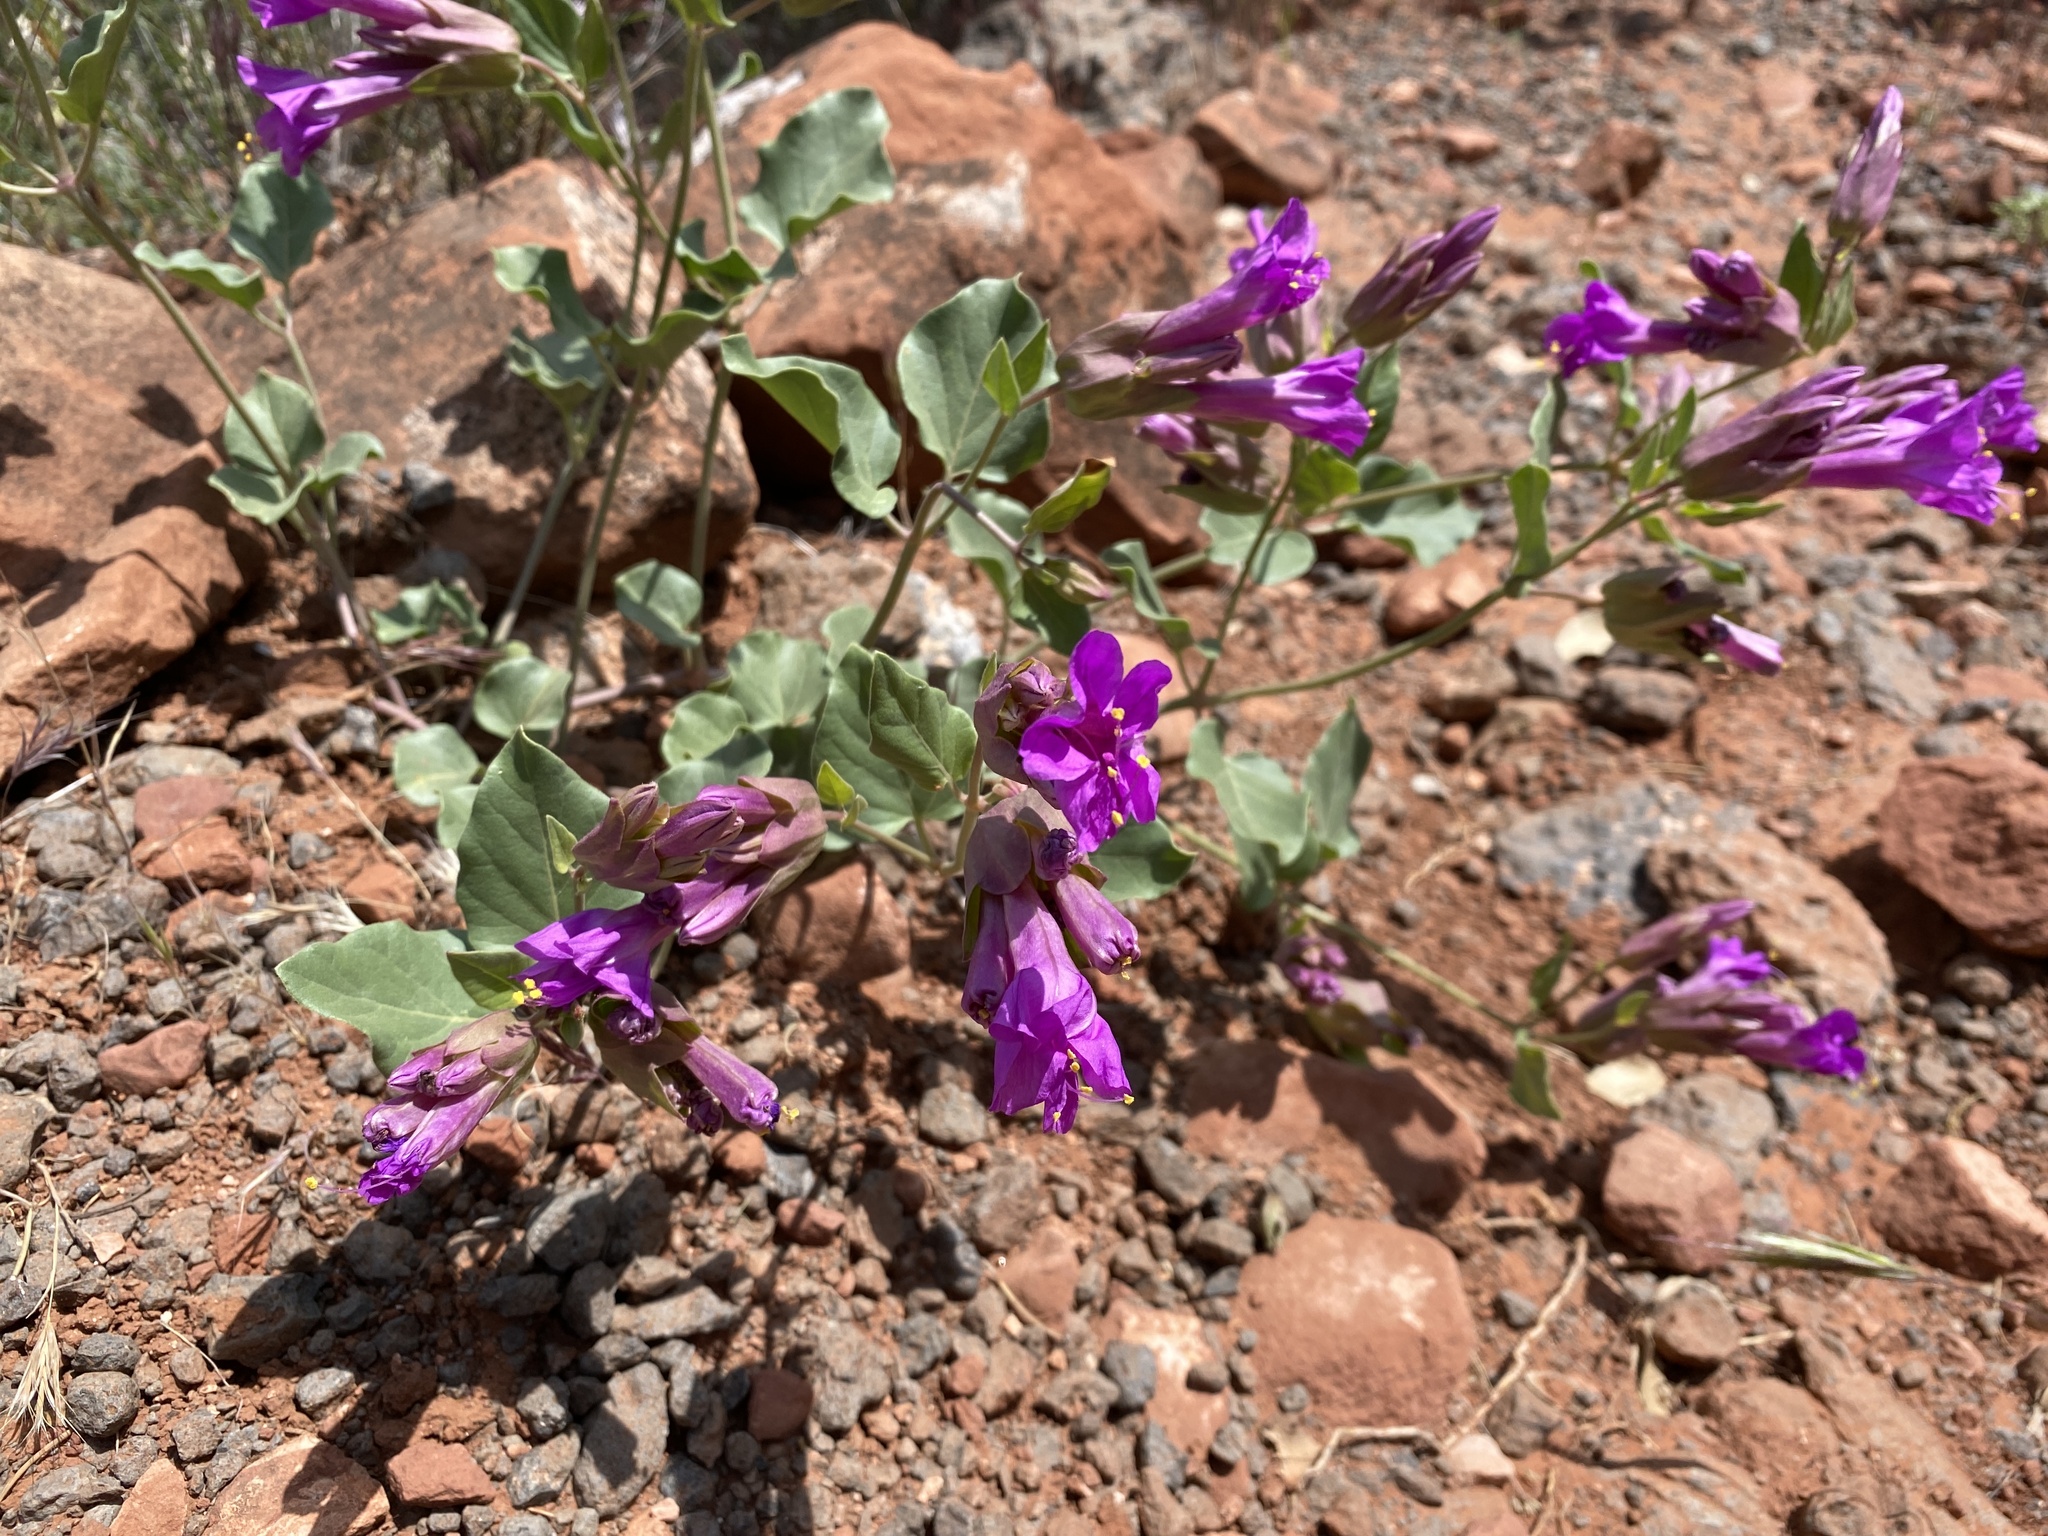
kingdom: Plantae
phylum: Tracheophyta
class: Magnoliopsida
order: Caryophyllales
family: Nyctaginaceae
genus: Mirabilis
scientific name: Mirabilis multiflora
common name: Froebel's four-o'clock
